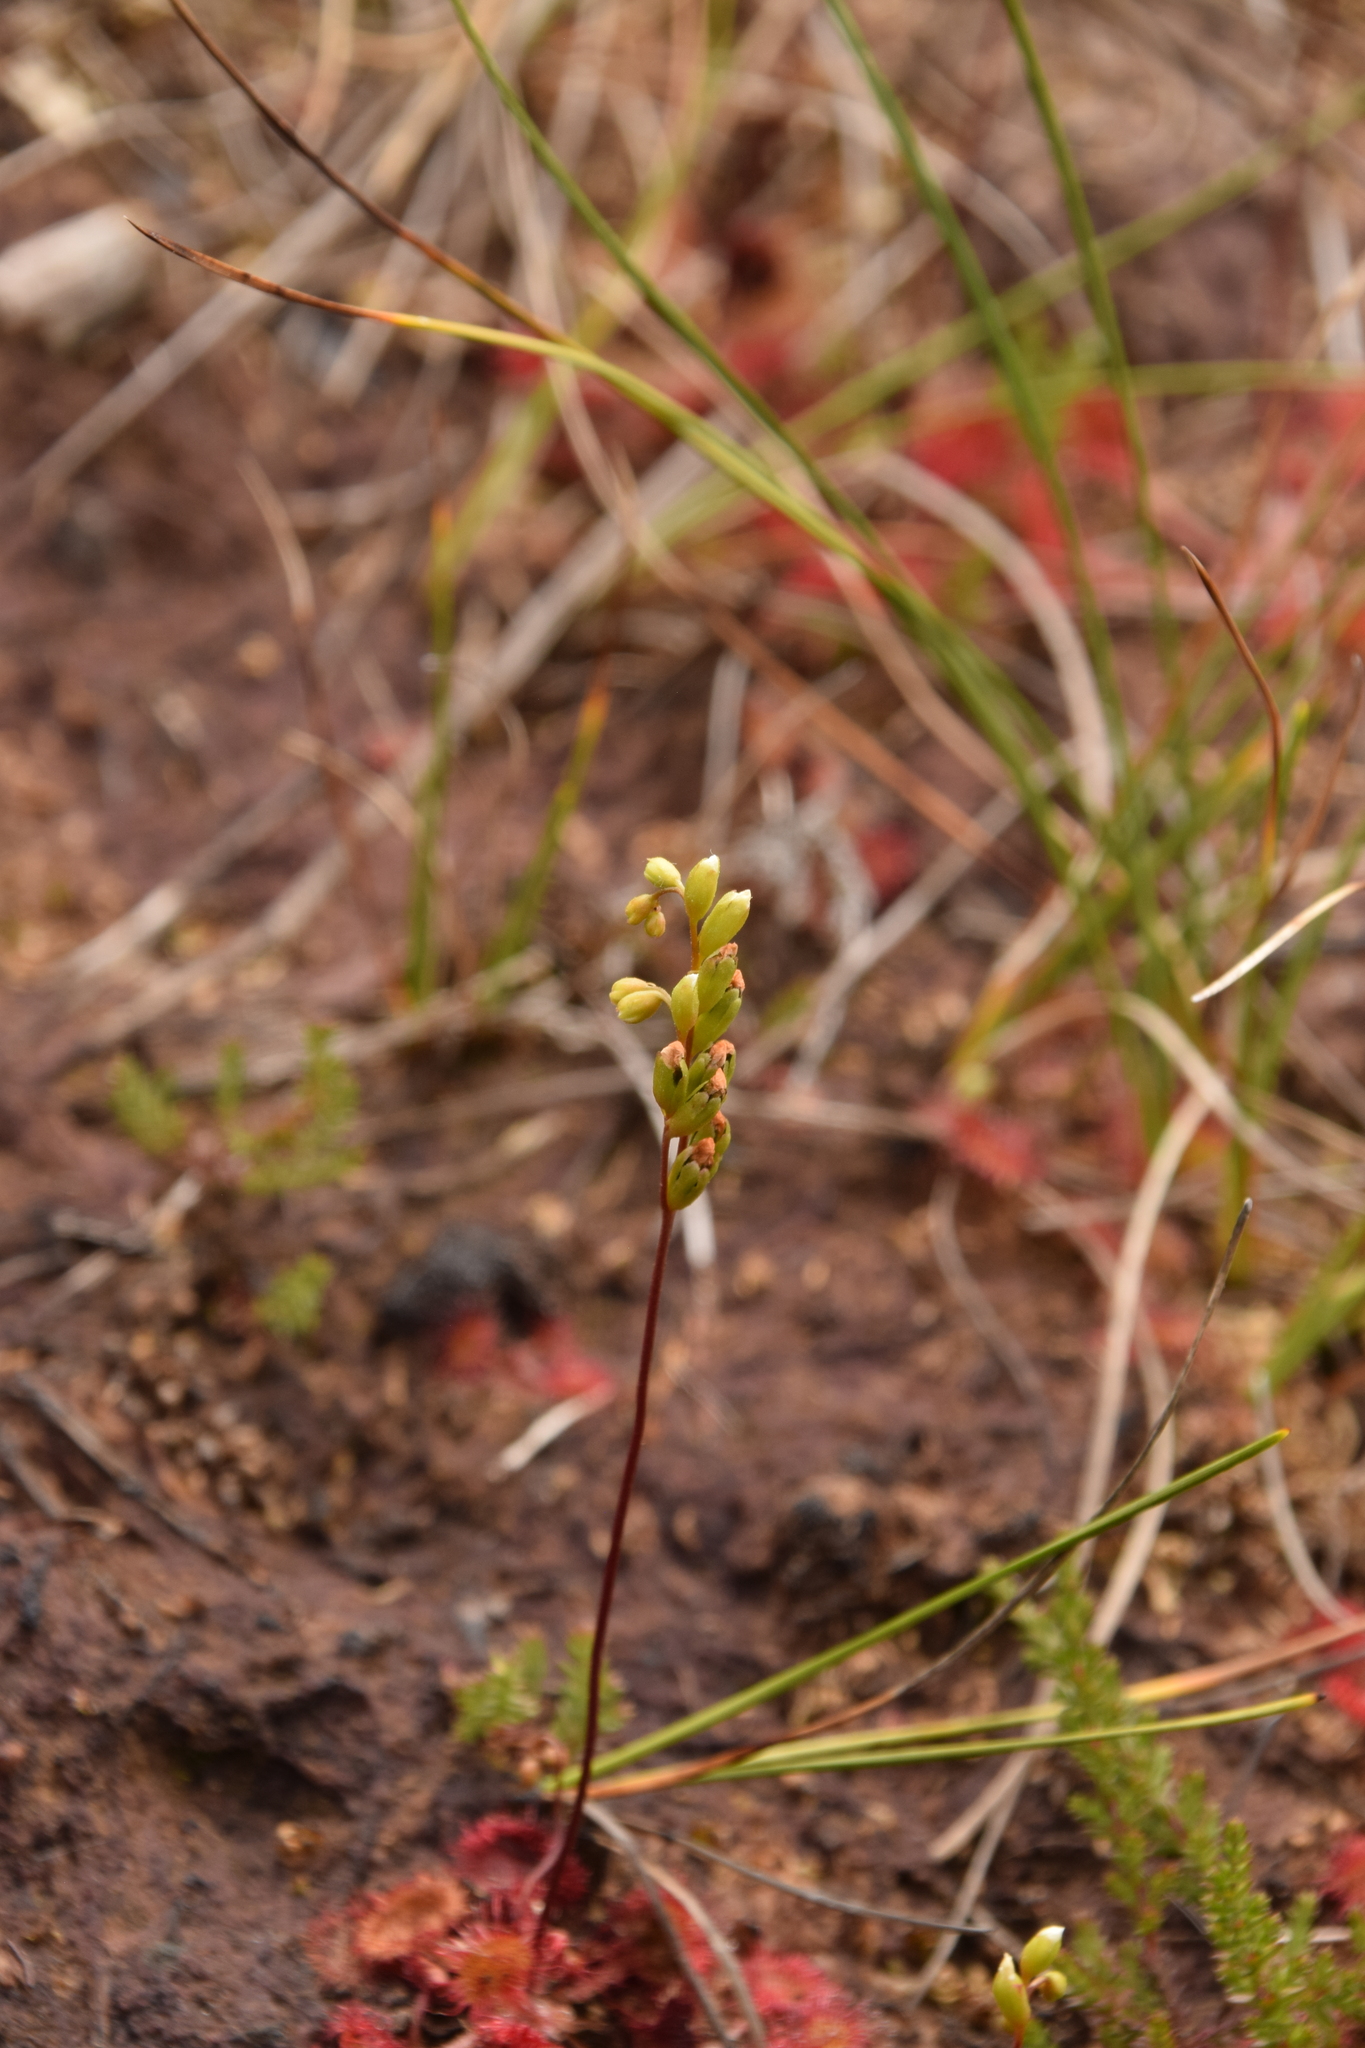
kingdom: Plantae
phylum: Tracheophyta
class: Magnoliopsida
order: Caryophyllales
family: Droseraceae
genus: Drosera
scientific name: Drosera rotundifolia
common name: Round-leaved sundew
